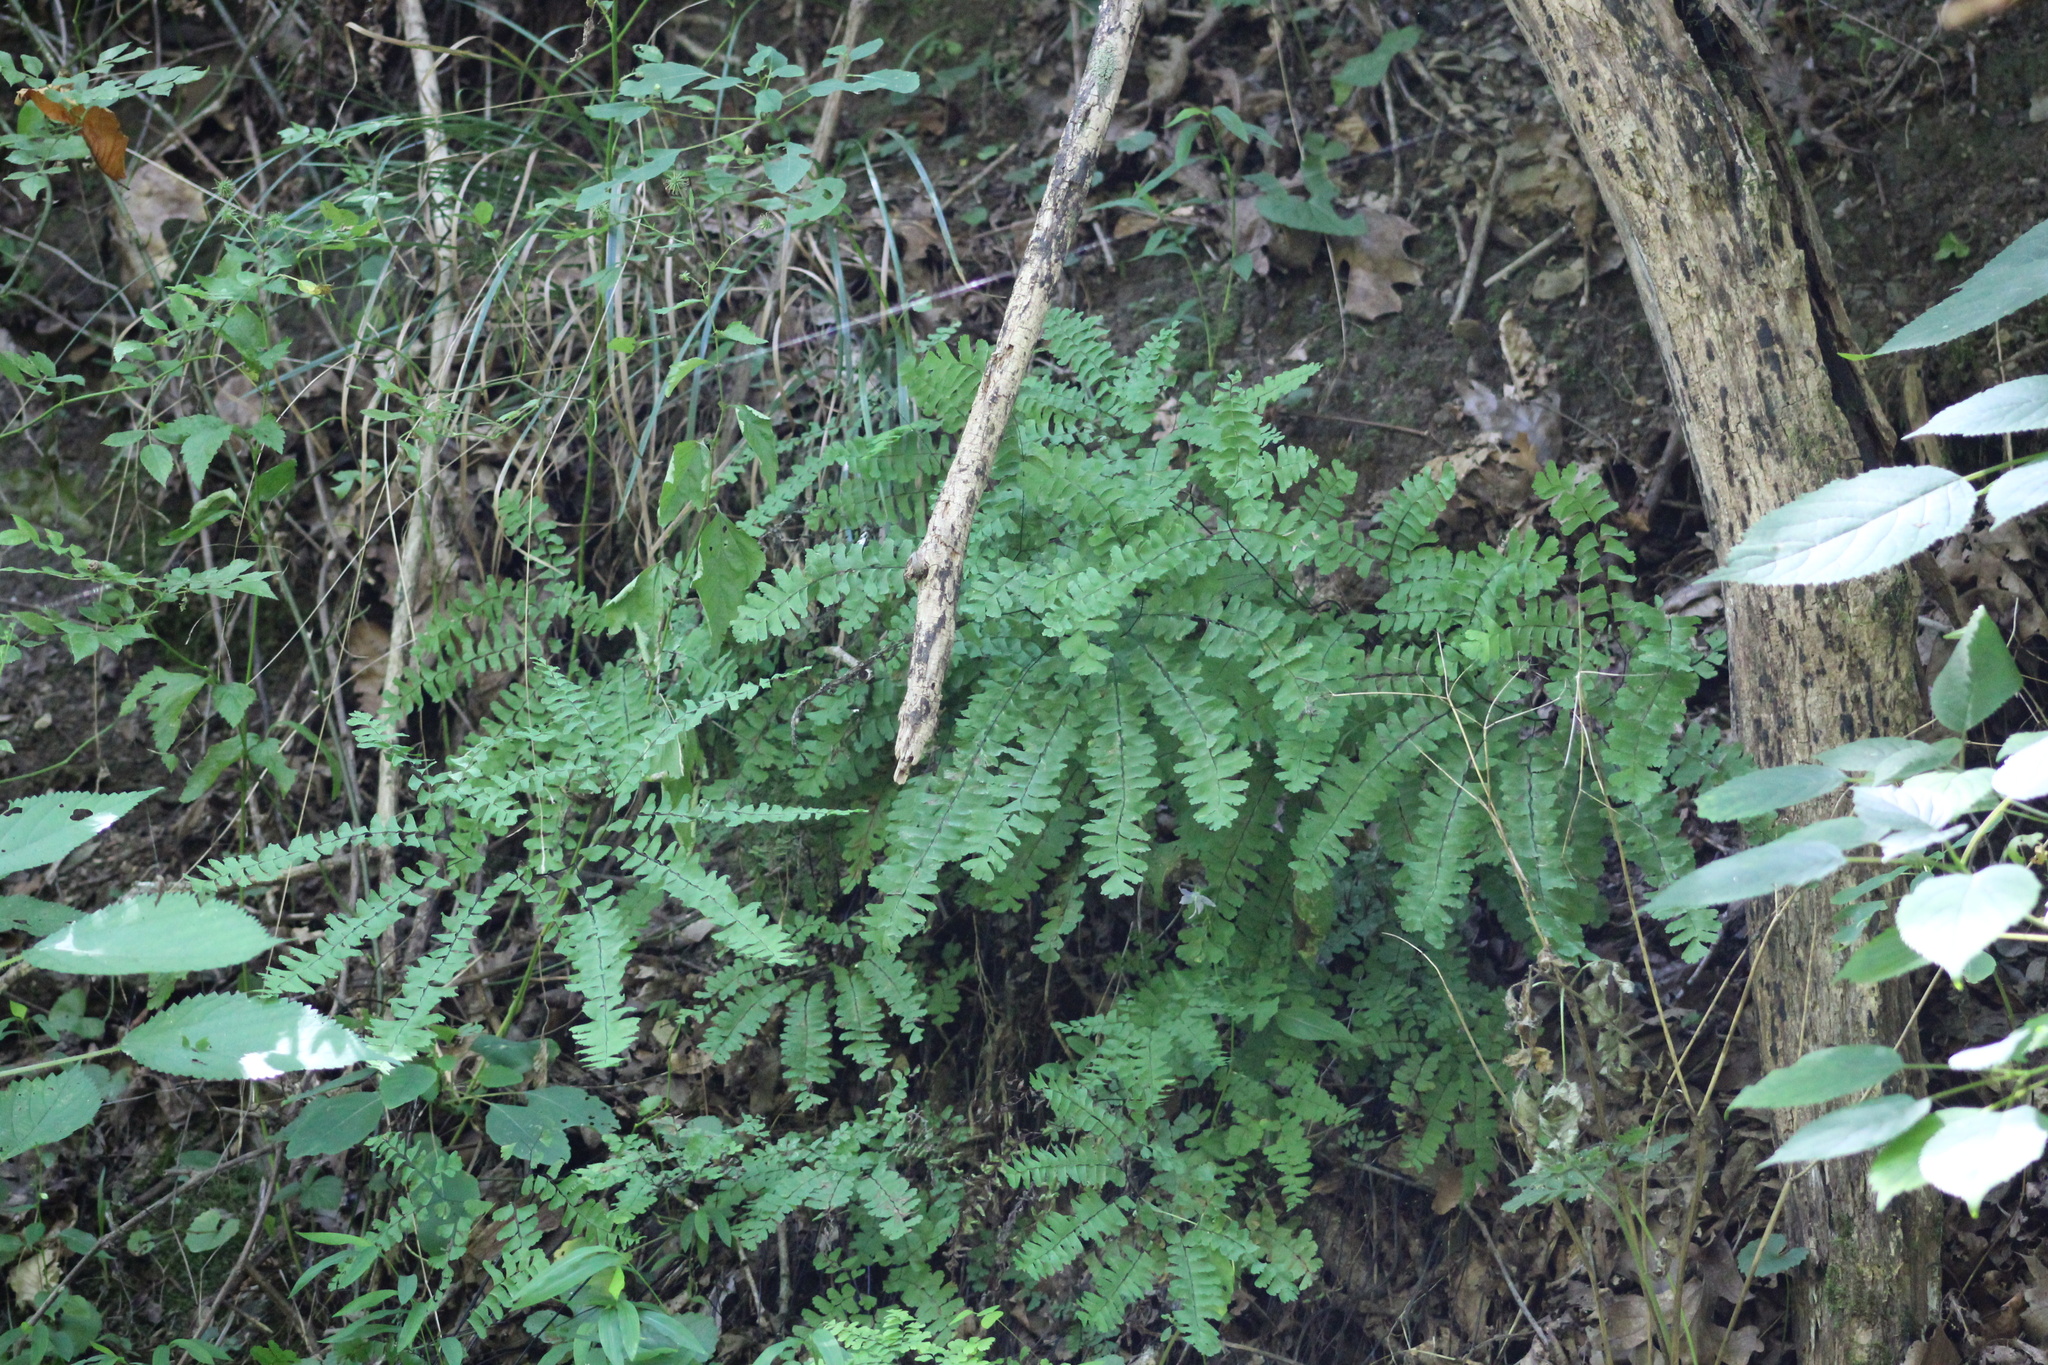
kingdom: Plantae
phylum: Tracheophyta
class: Polypodiopsida
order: Polypodiales
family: Pteridaceae
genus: Adiantum
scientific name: Adiantum pedatum
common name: Five-finger fern
